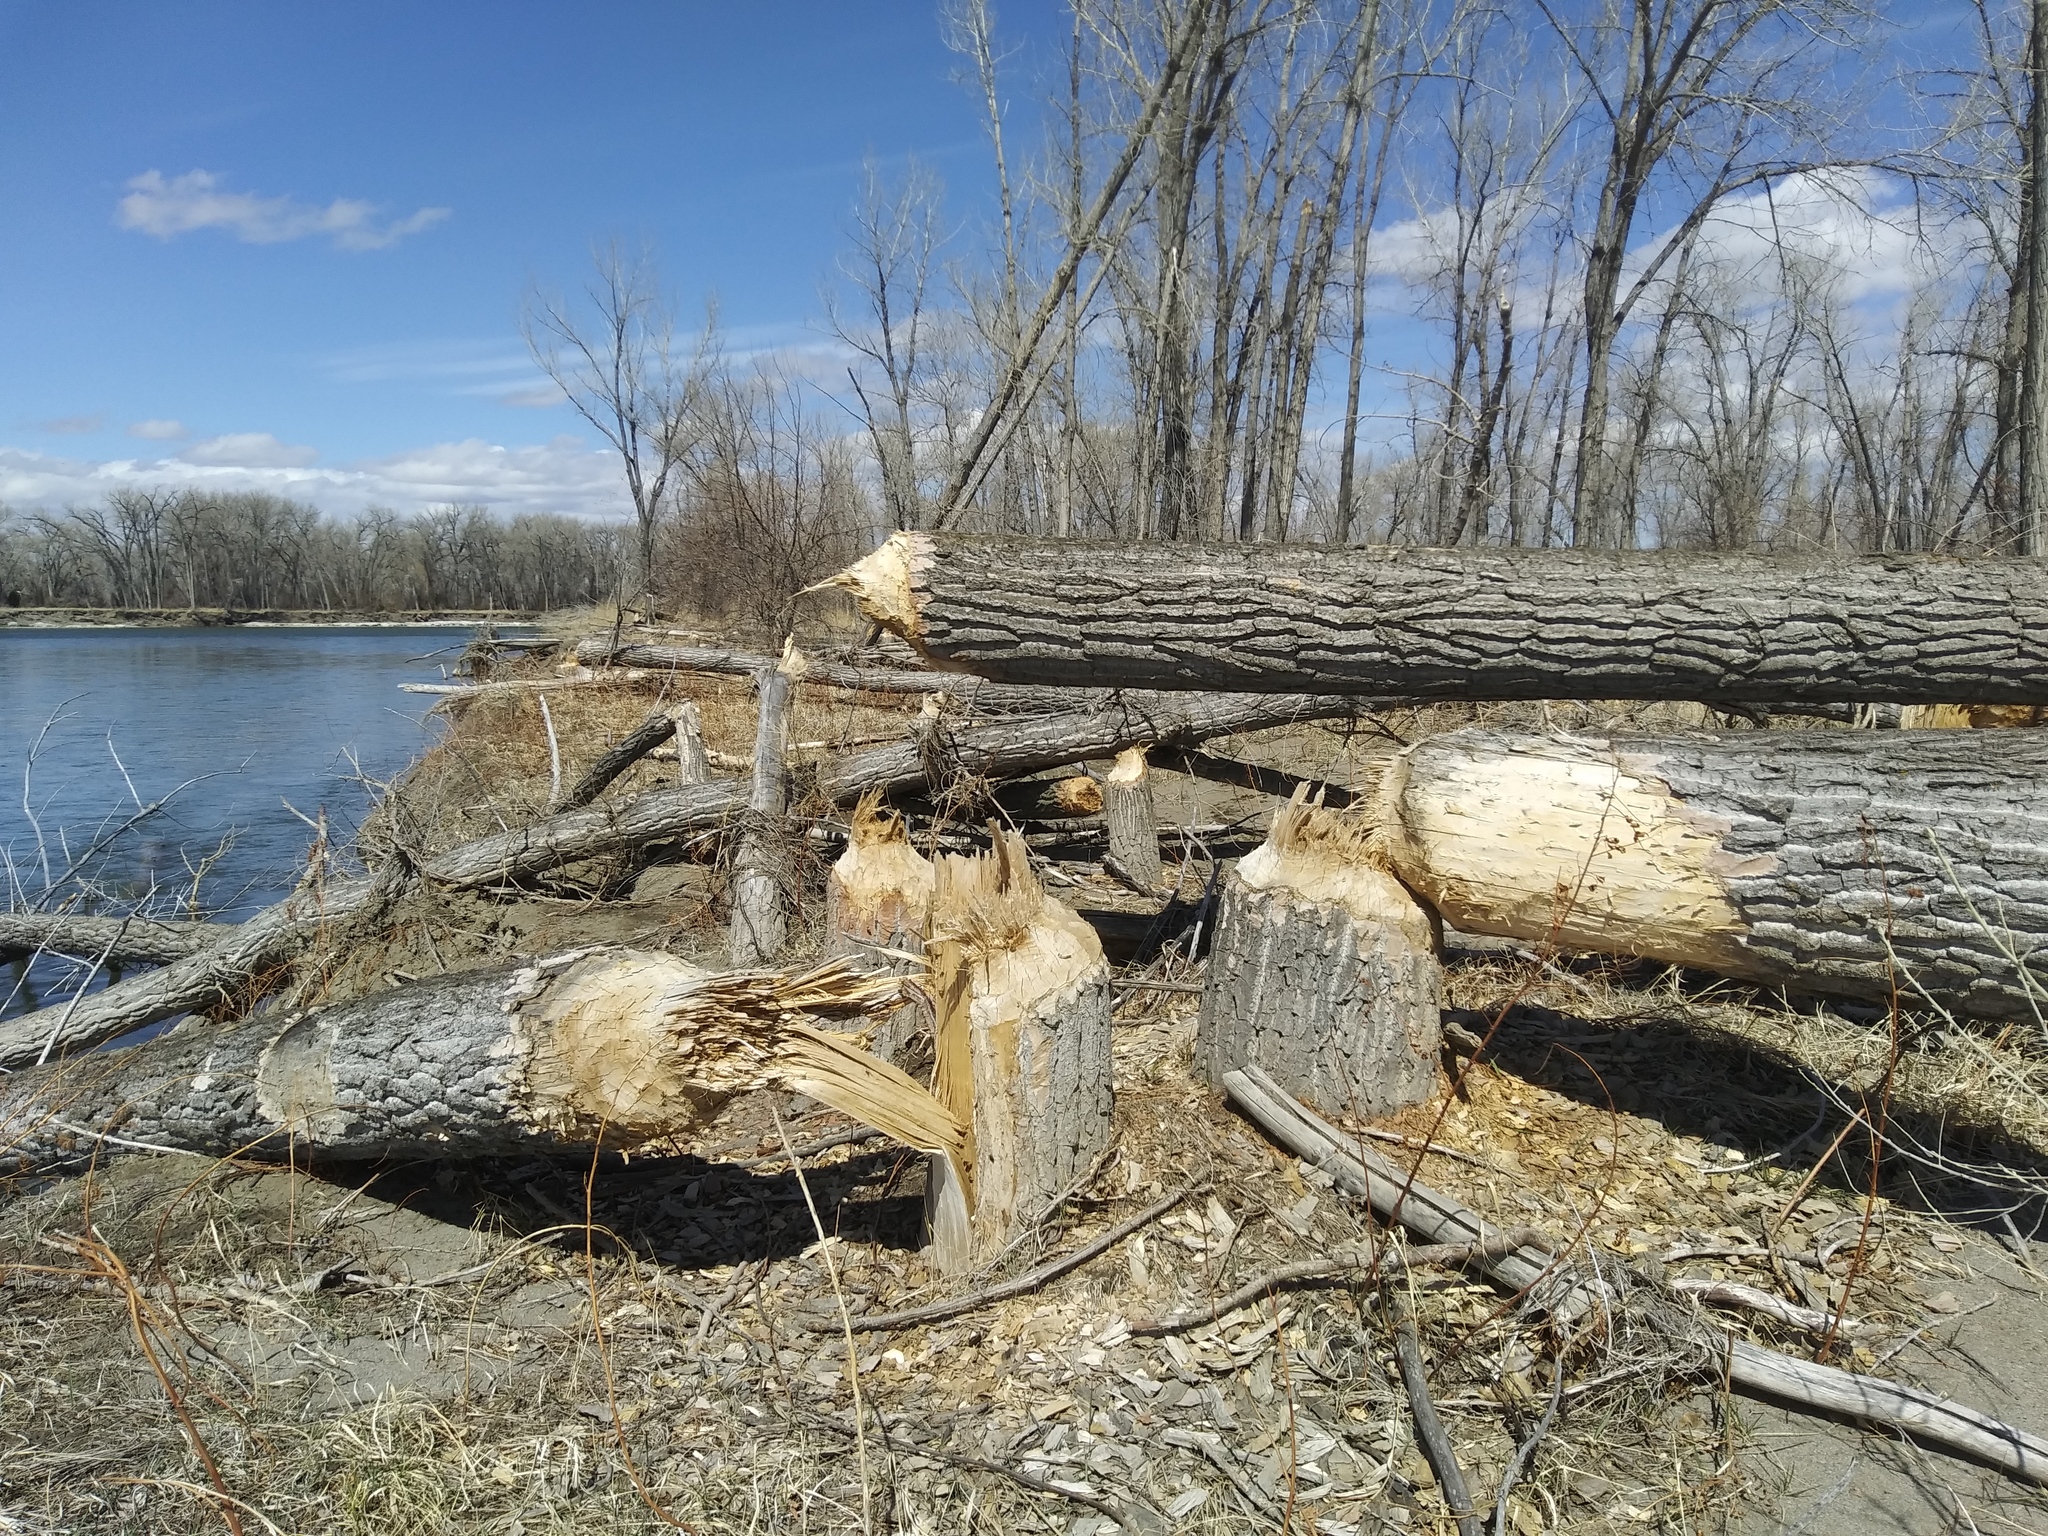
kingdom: Animalia
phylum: Chordata
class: Mammalia
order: Rodentia
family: Castoridae
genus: Castor
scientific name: Castor canadensis
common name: American beaver
